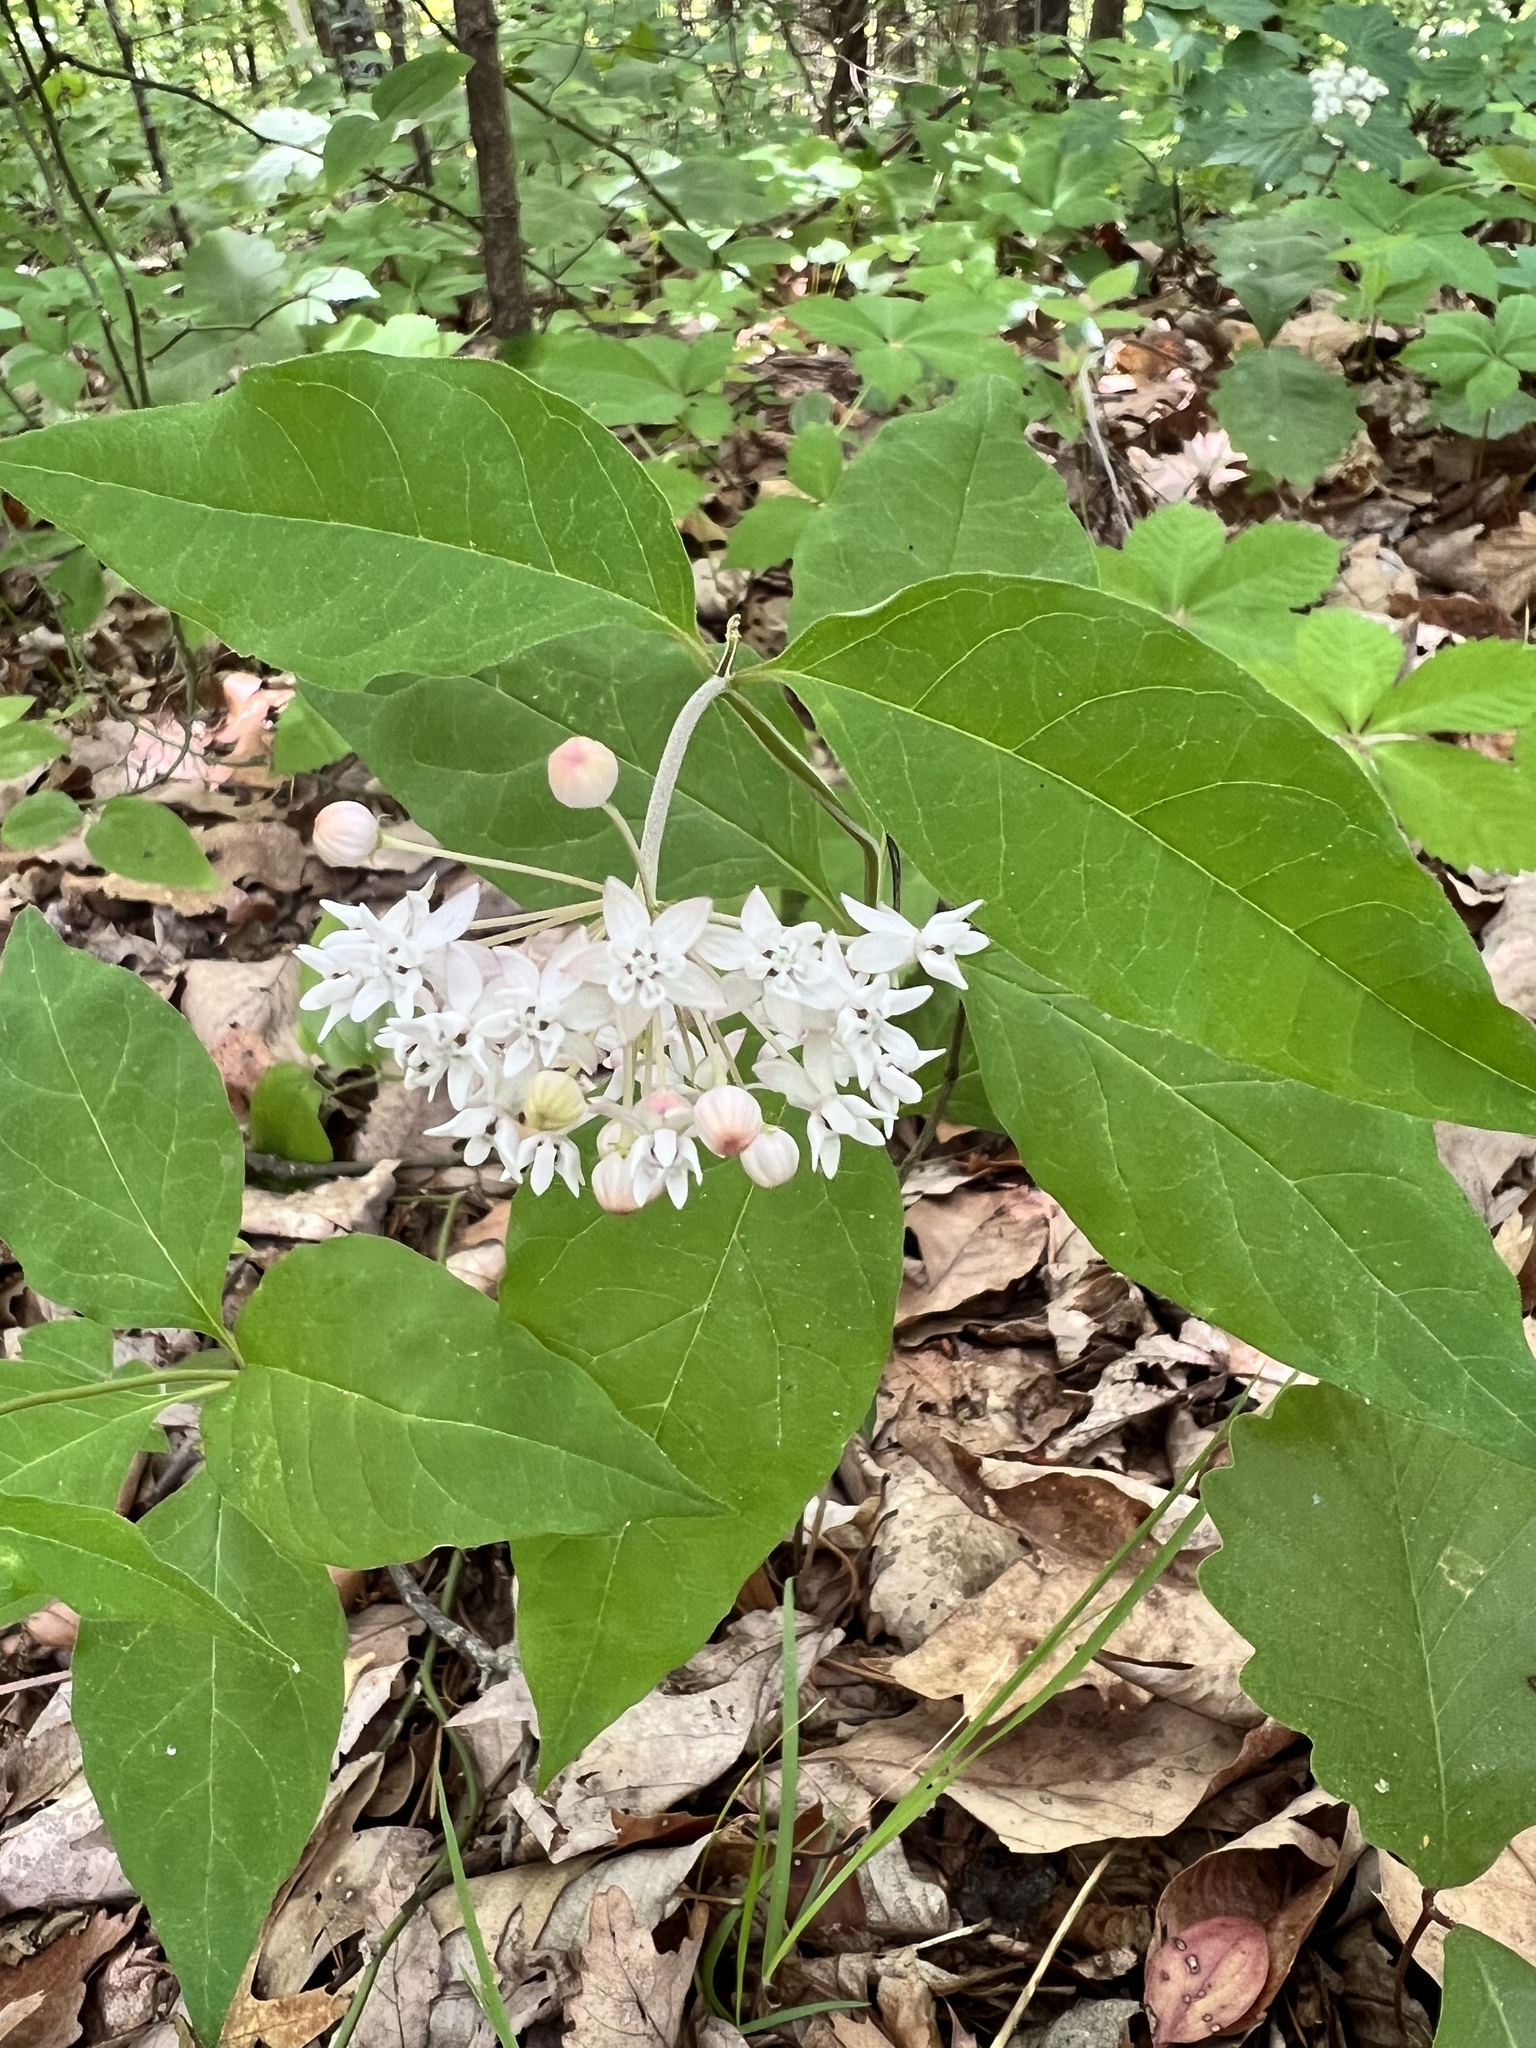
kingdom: Plantae
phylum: Tracheophyta
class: Magnoliopsida
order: Gentianales
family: Apocynaceae
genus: Asclepias
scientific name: Asclepias quadrifolia
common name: Whorled milkweed
